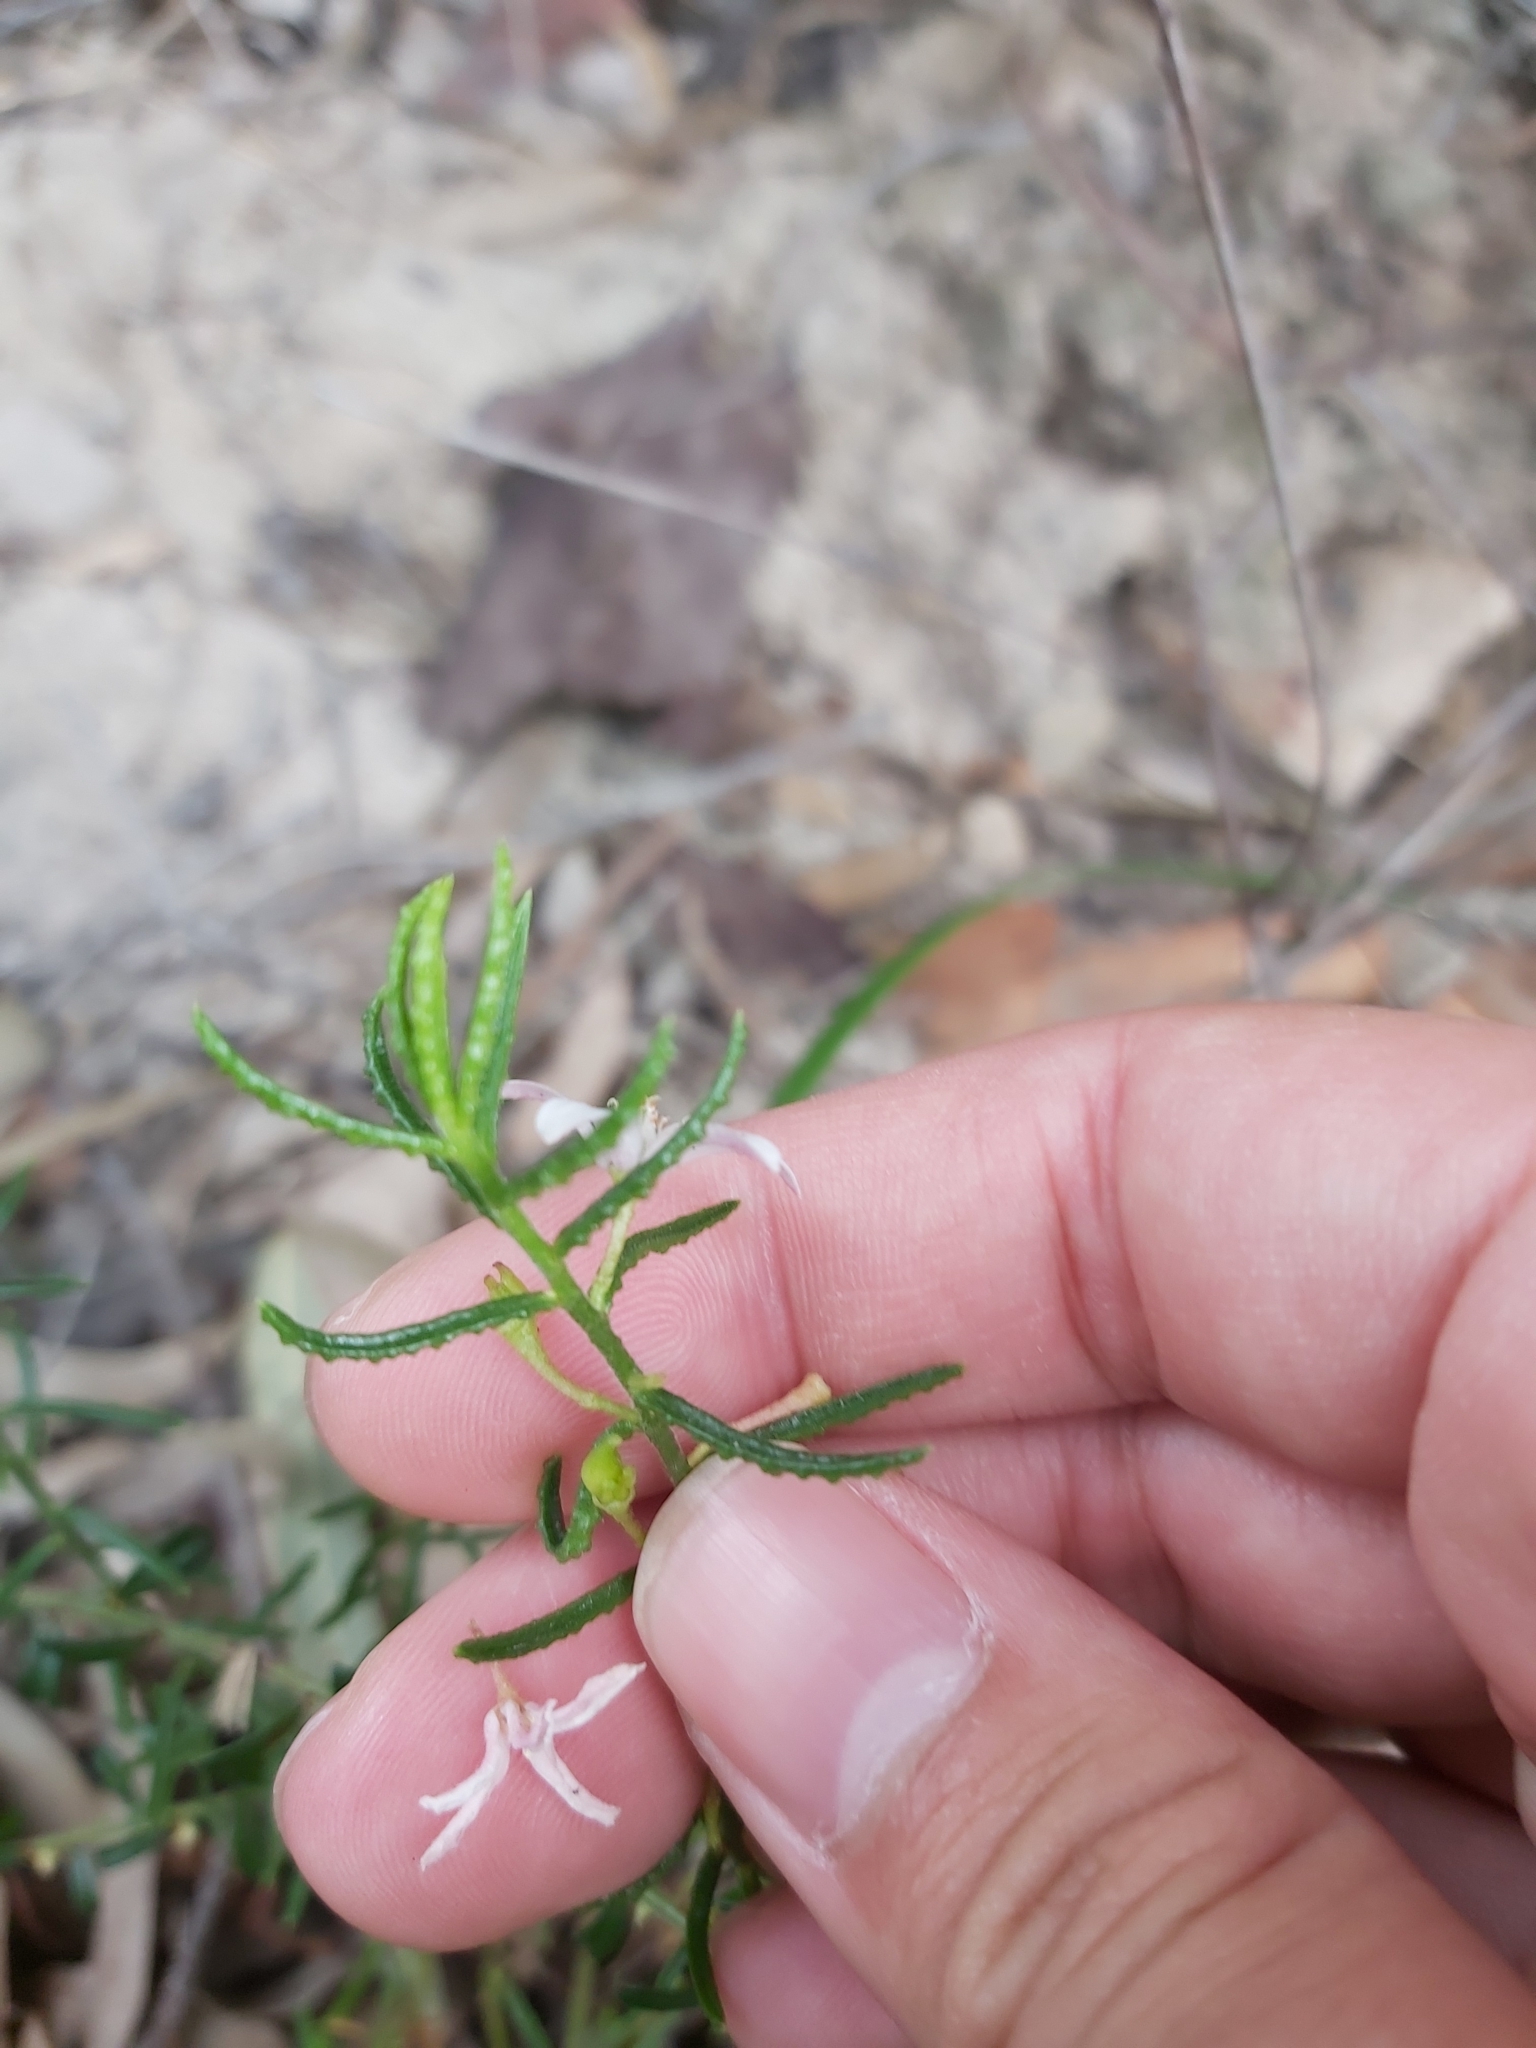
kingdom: Plantae
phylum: Tracheophyta
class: Magnoliopsida
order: Sapindales
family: Rutaceae
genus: Philotheca
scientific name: Philotheca scabra
